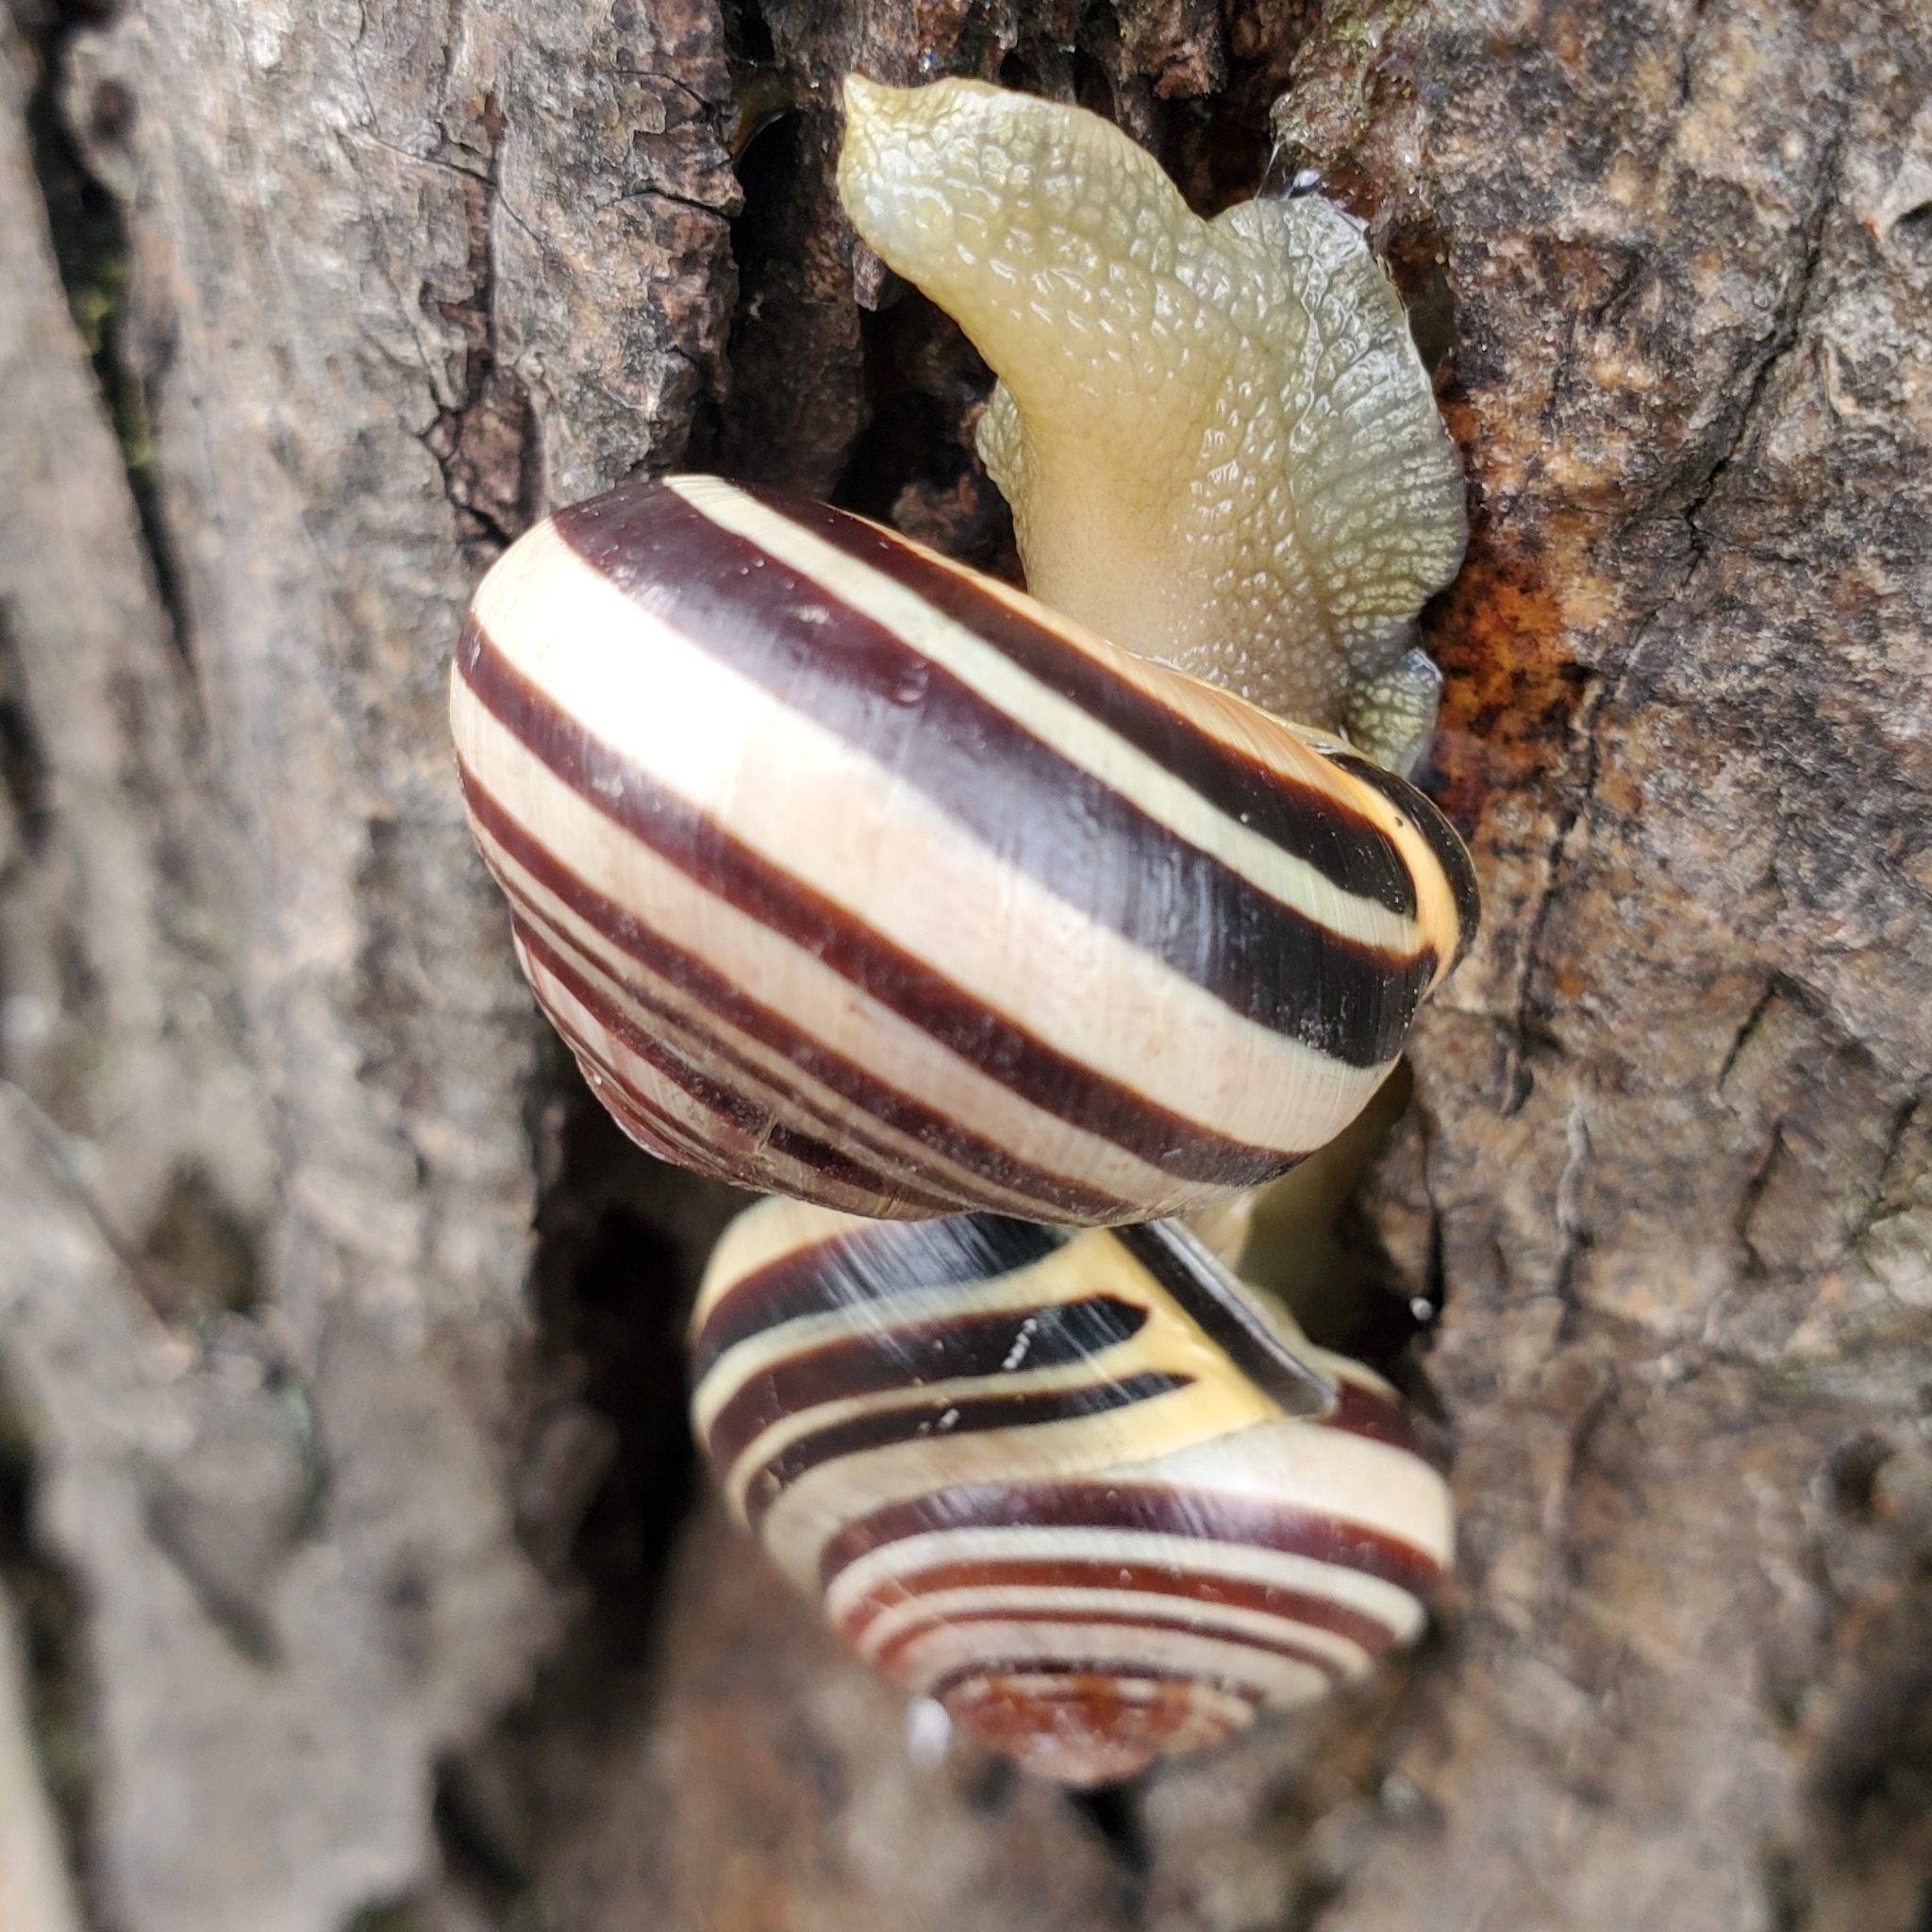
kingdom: Animalia
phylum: Mollusca
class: Gastropoda
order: Stylommatophora
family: Helicidae
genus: Cepaea
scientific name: Cepaea nemoralis
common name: Grovesnail
